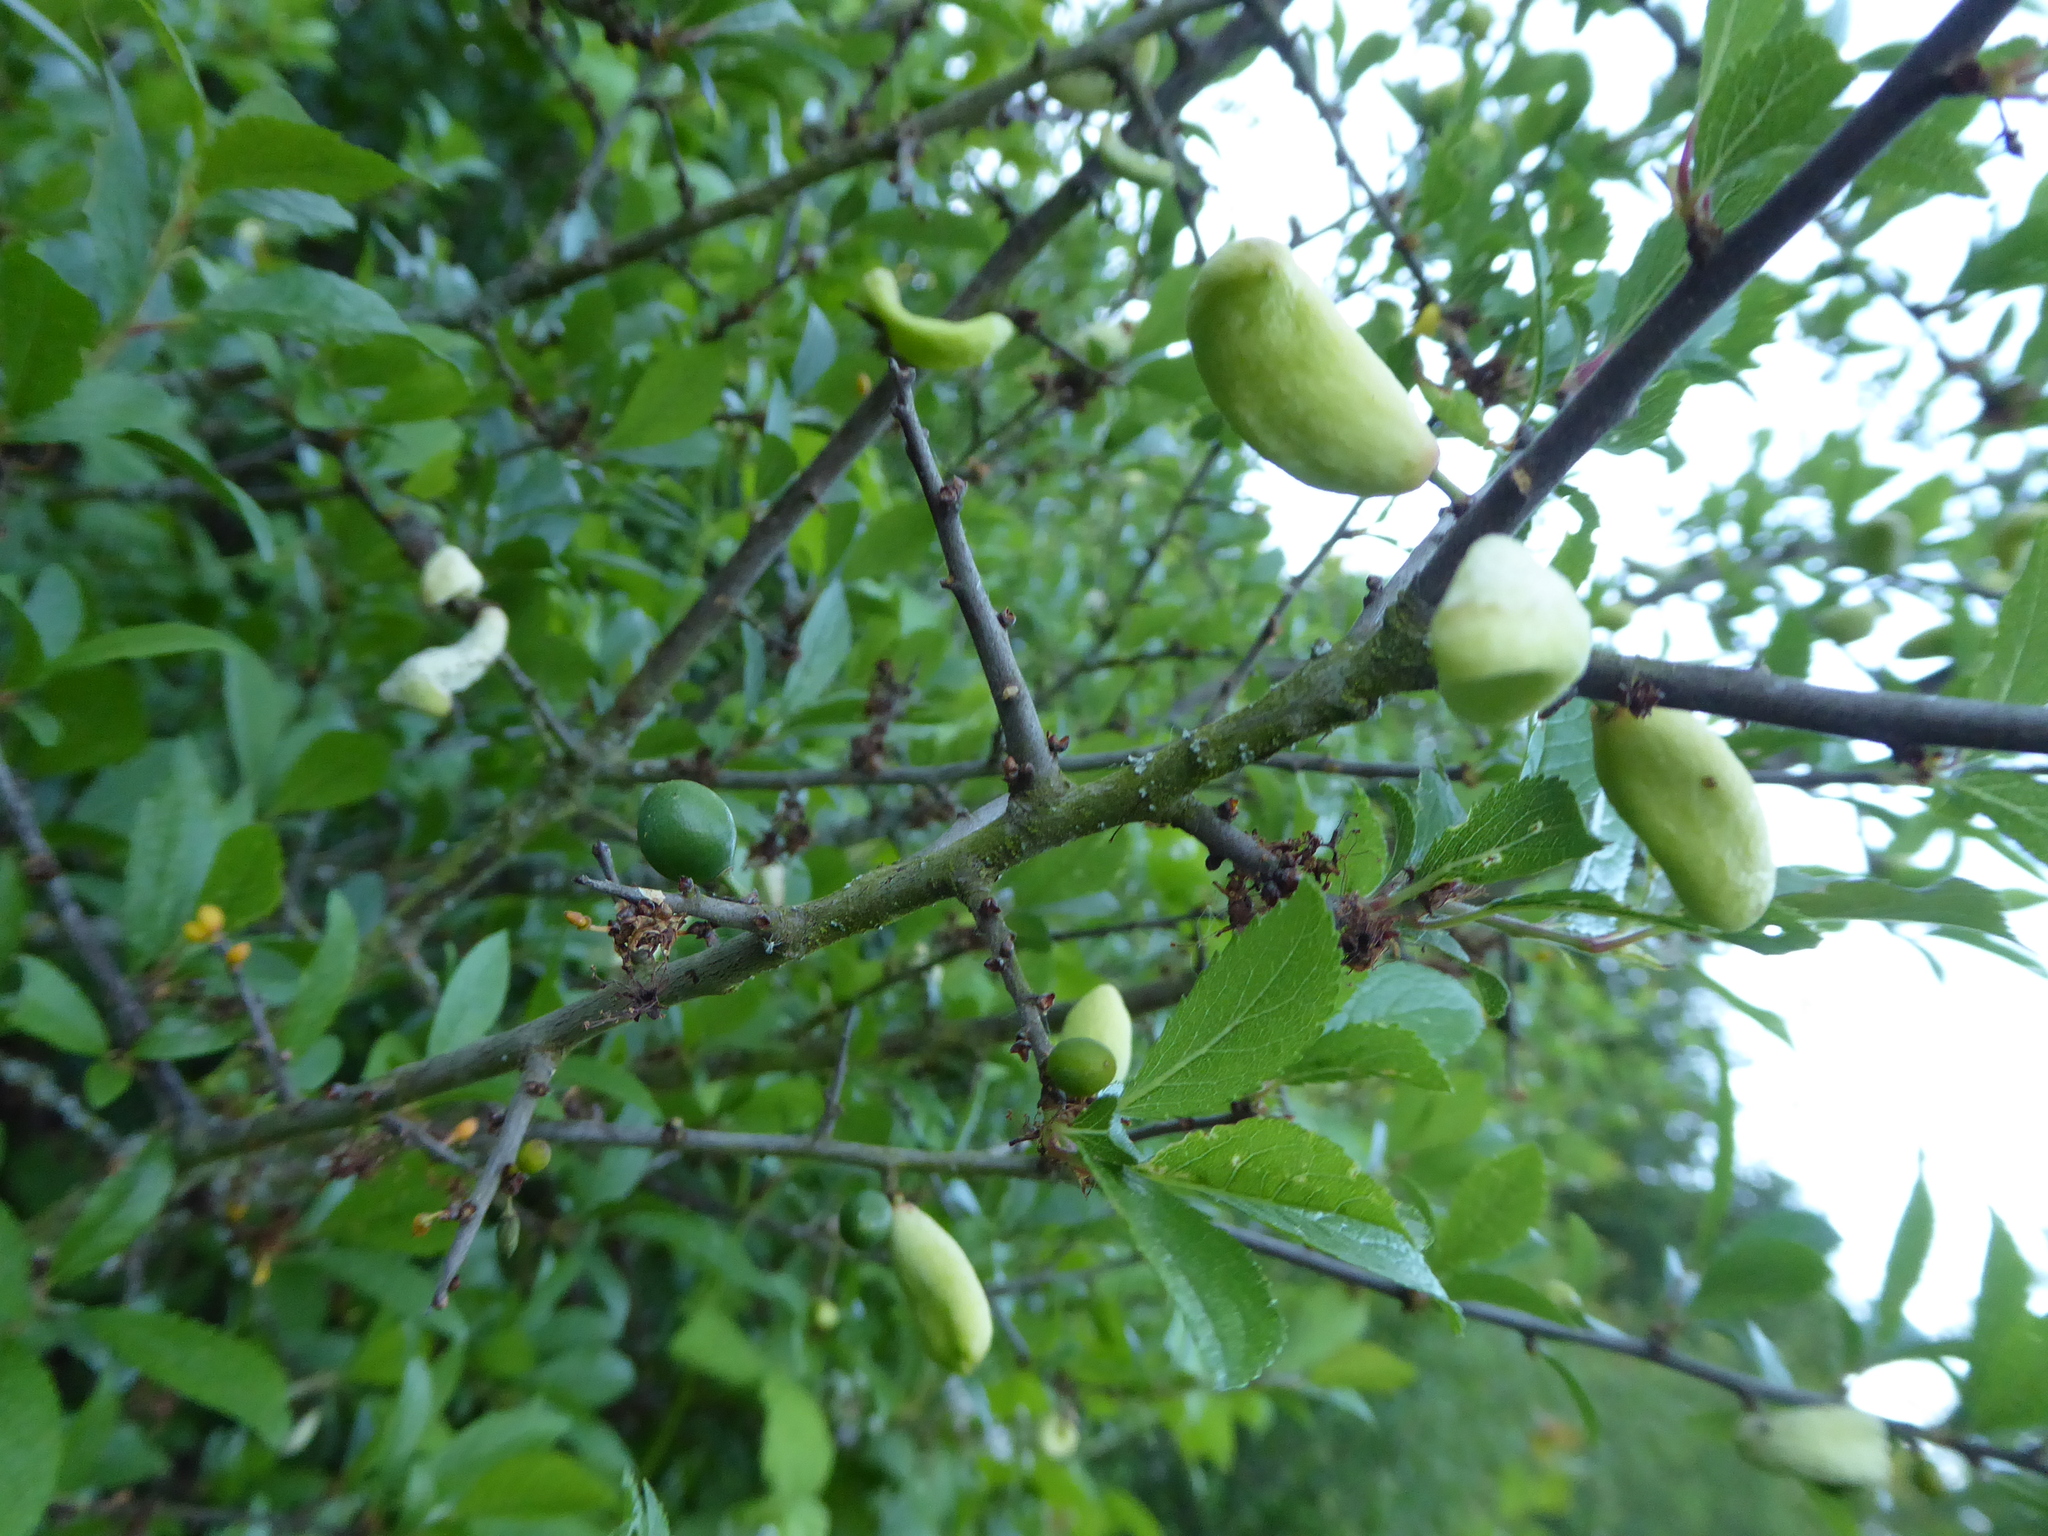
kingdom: Fungi
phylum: Ascomycota
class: Taphrinomycetes
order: Taphrinales
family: Taphrinaceae
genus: Taphrina
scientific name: Taphrina pruni
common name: Pocket plum
